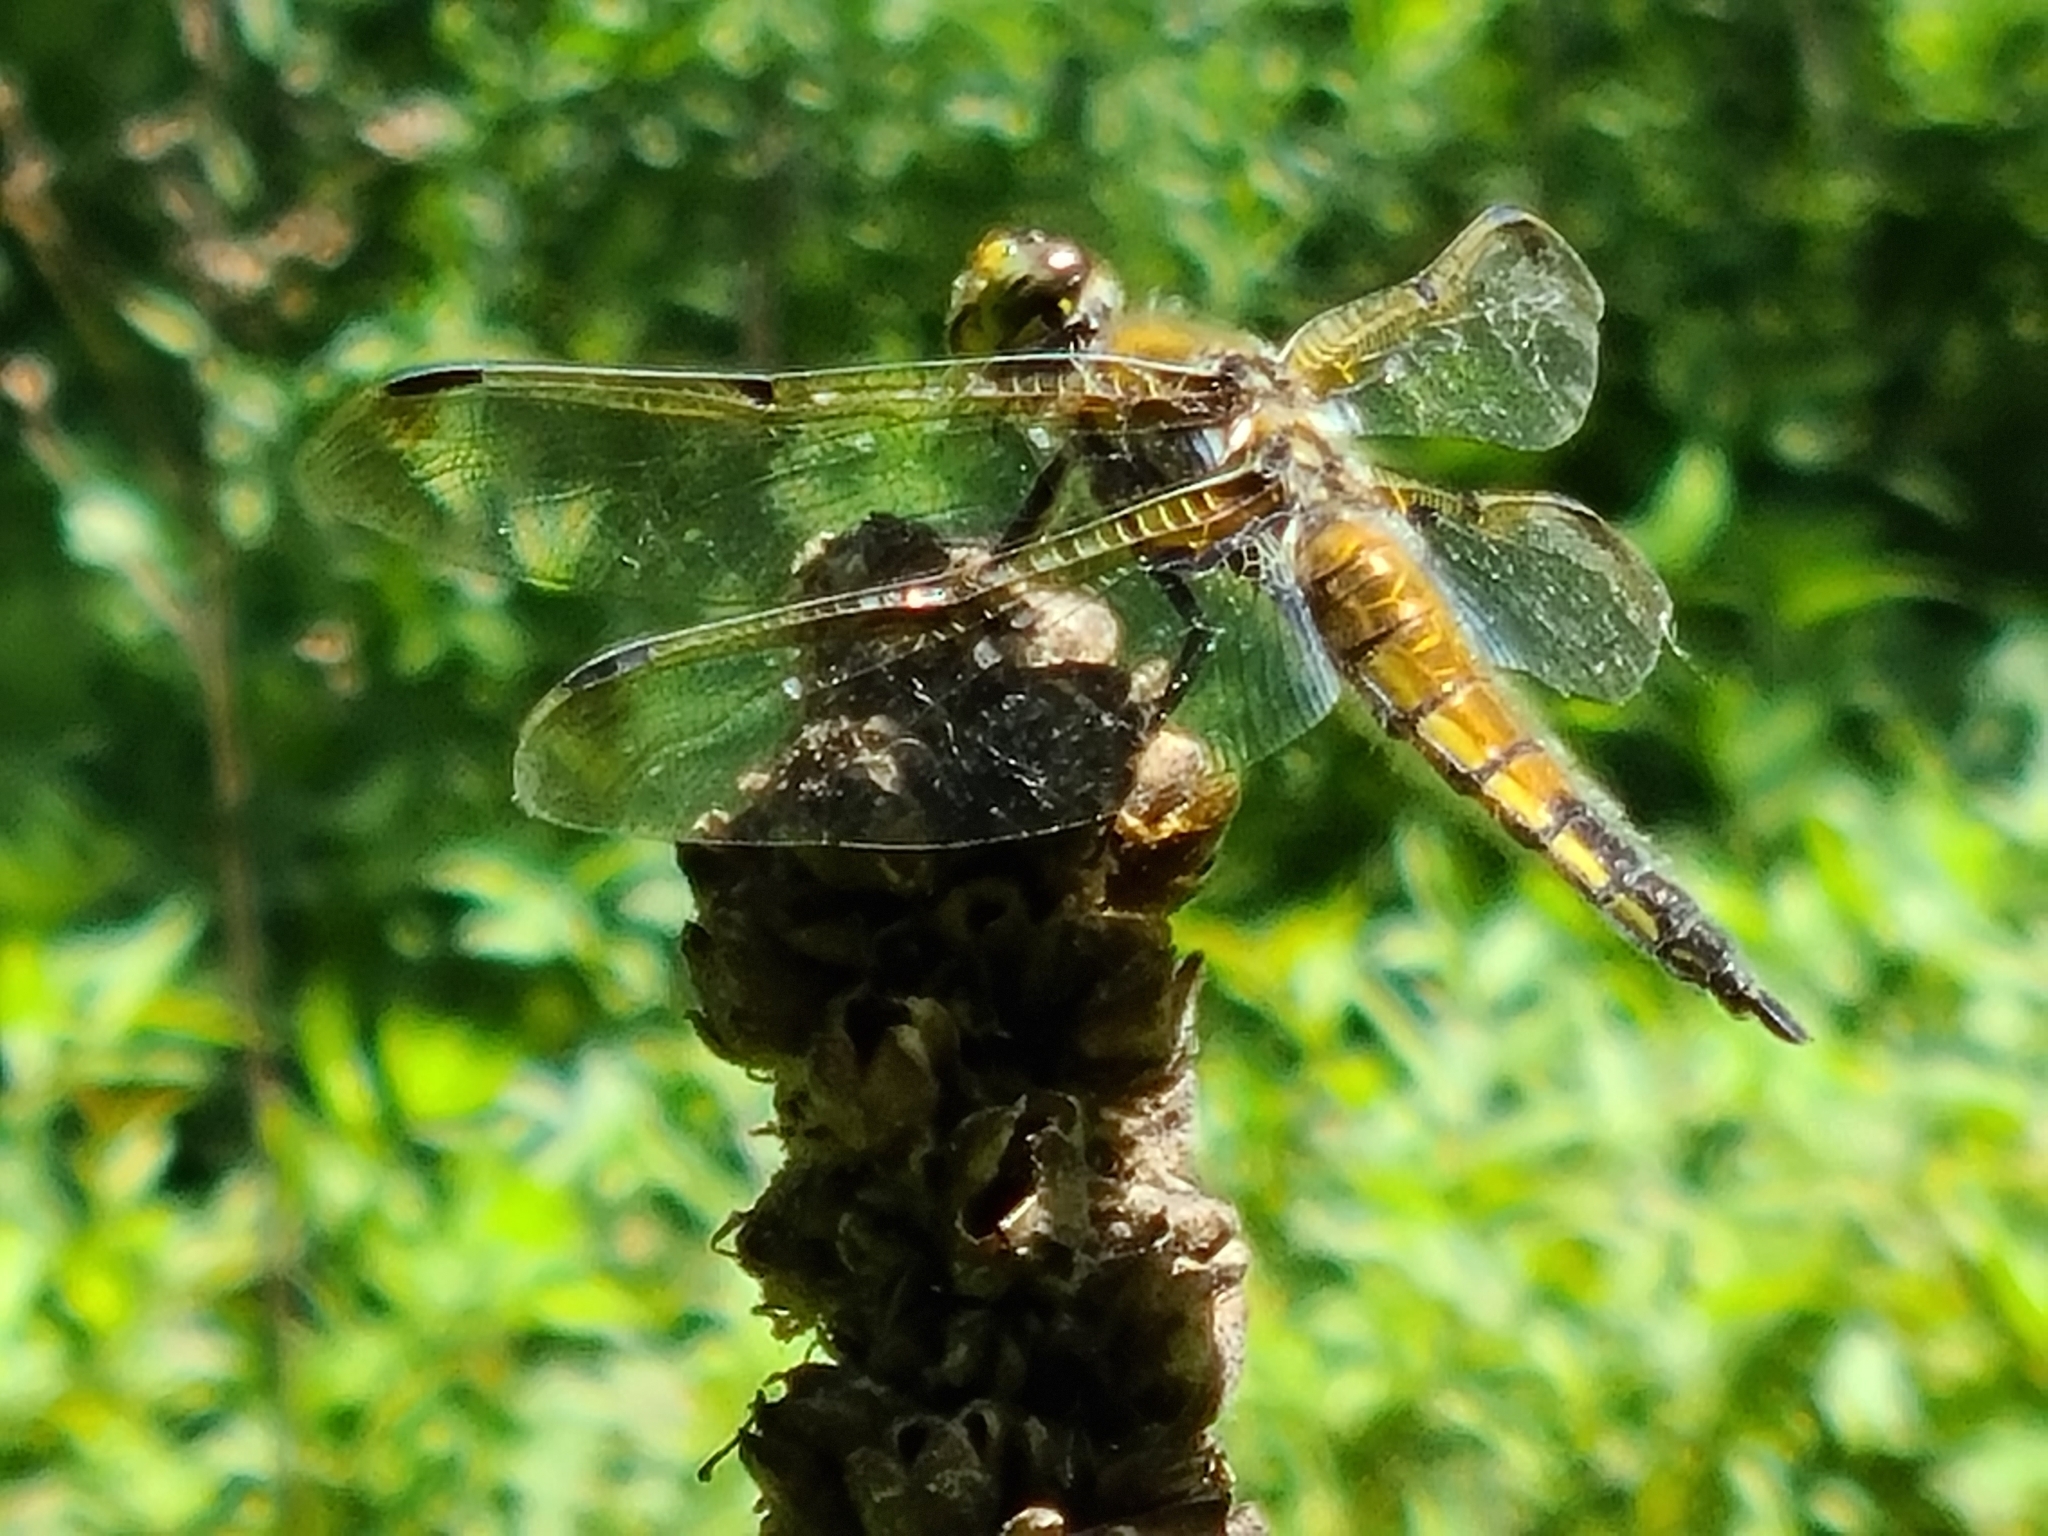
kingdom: Animalia
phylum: Arthropoda
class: Insecta
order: Odonata
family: Libellulidae
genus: Libellula
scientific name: Libellula quadrimaculata
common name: Four-spotted chaser
